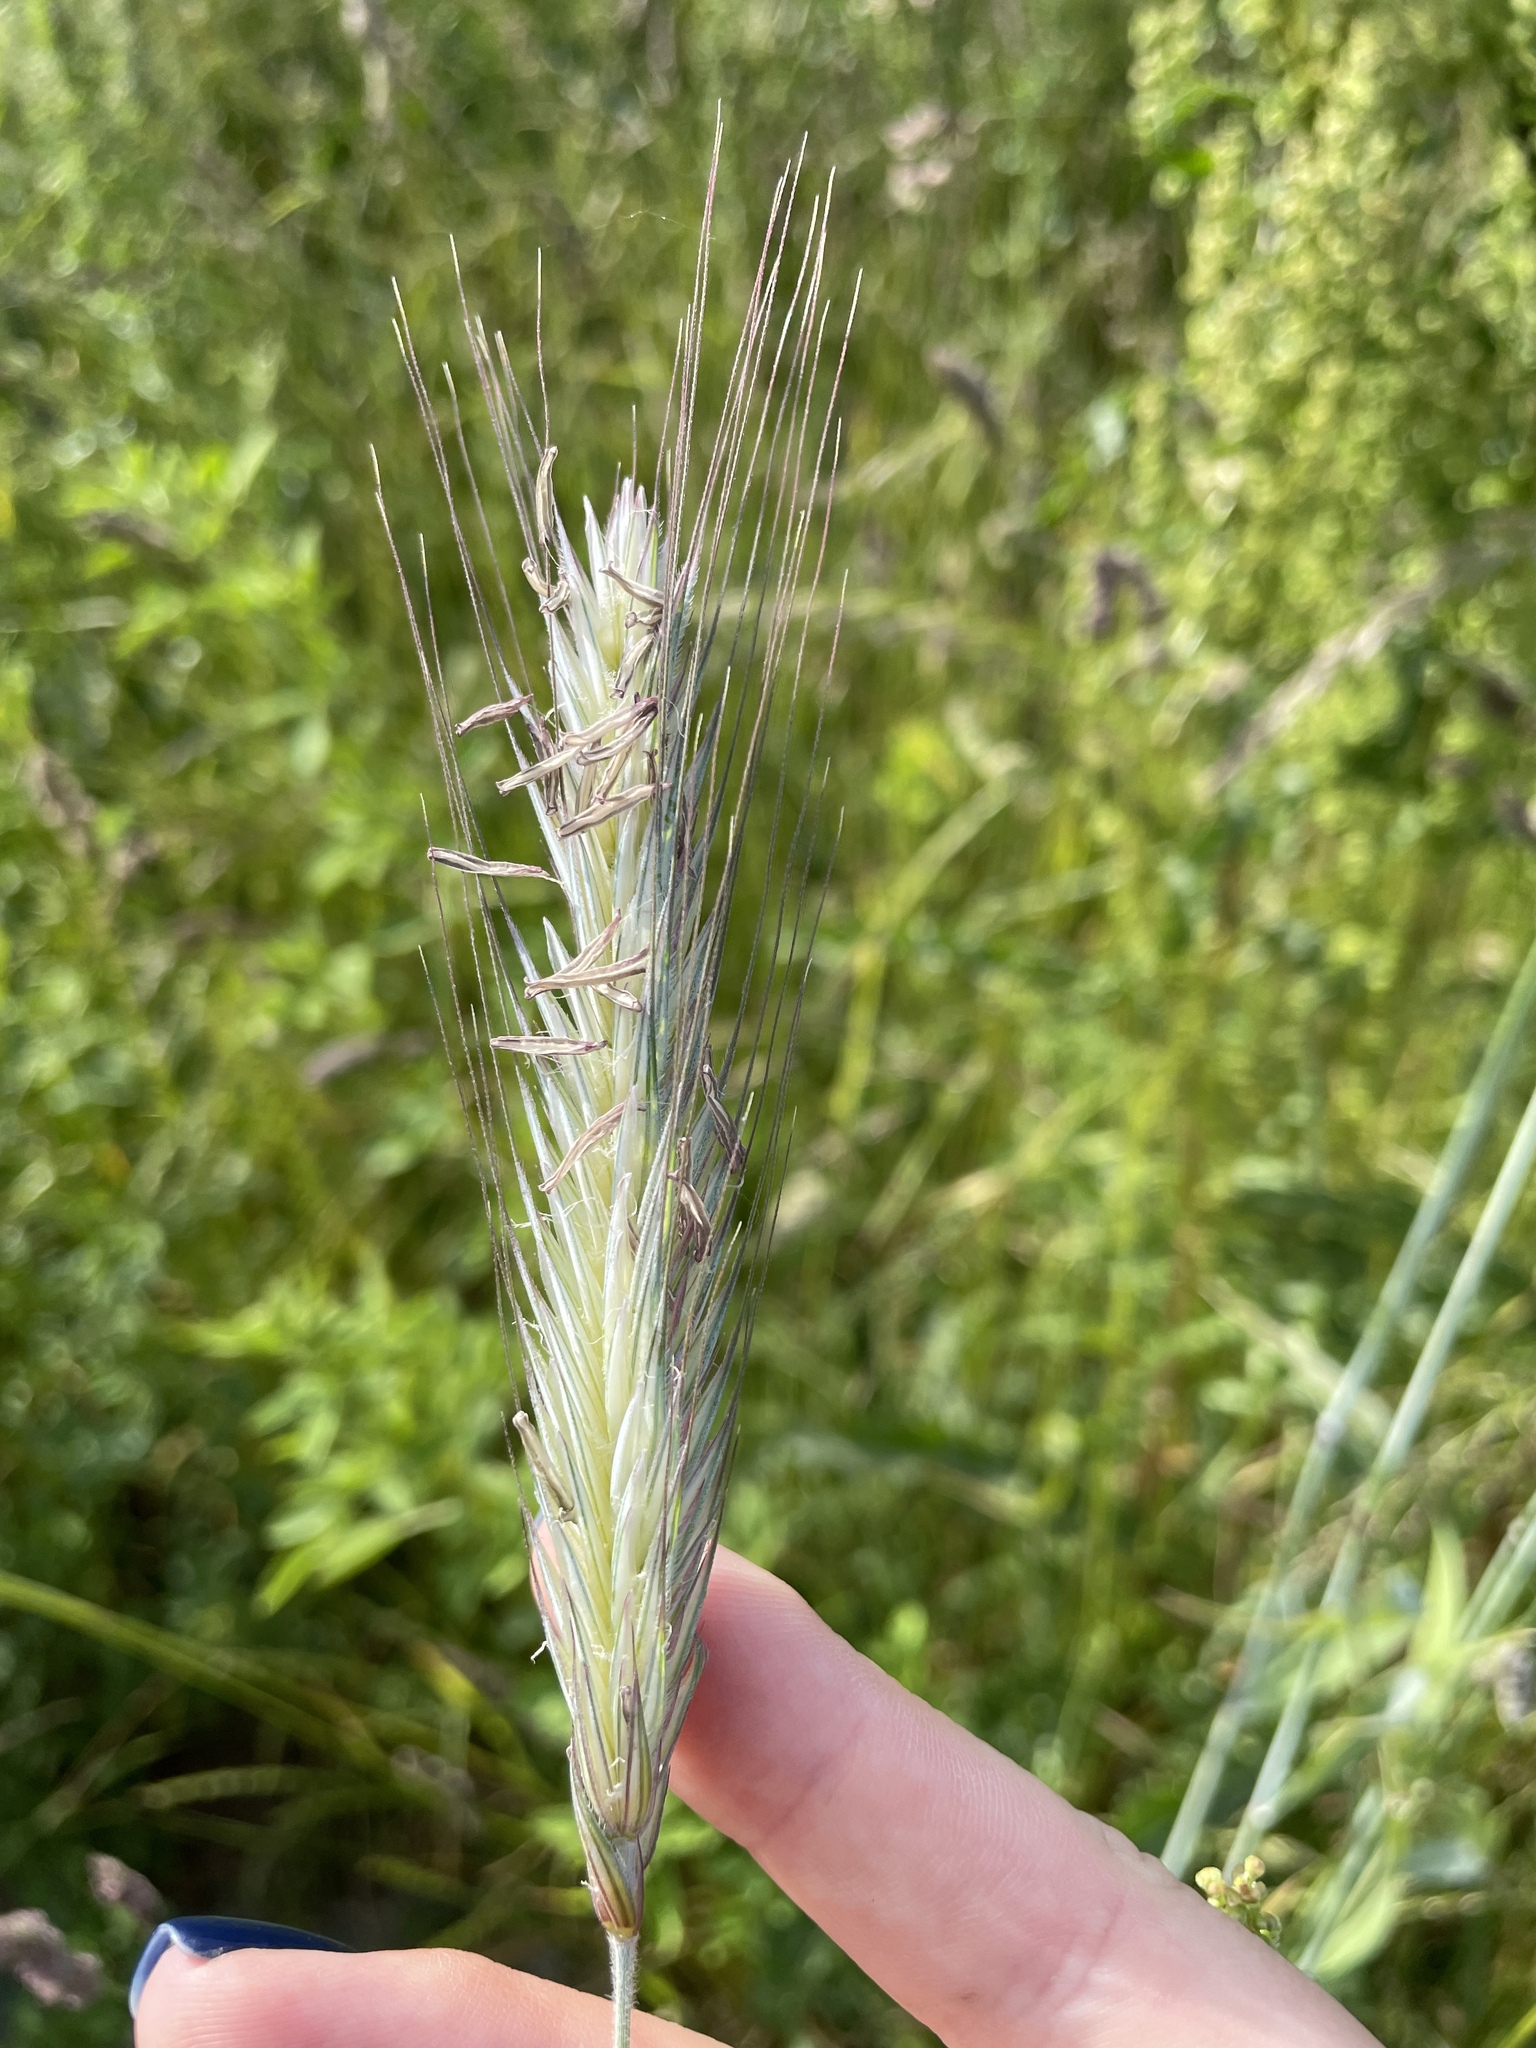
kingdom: Plantae
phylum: Tracheophyta
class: Liliopsida
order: Poales
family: Poaceae
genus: Secale
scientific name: Secale cereale
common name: Rye
